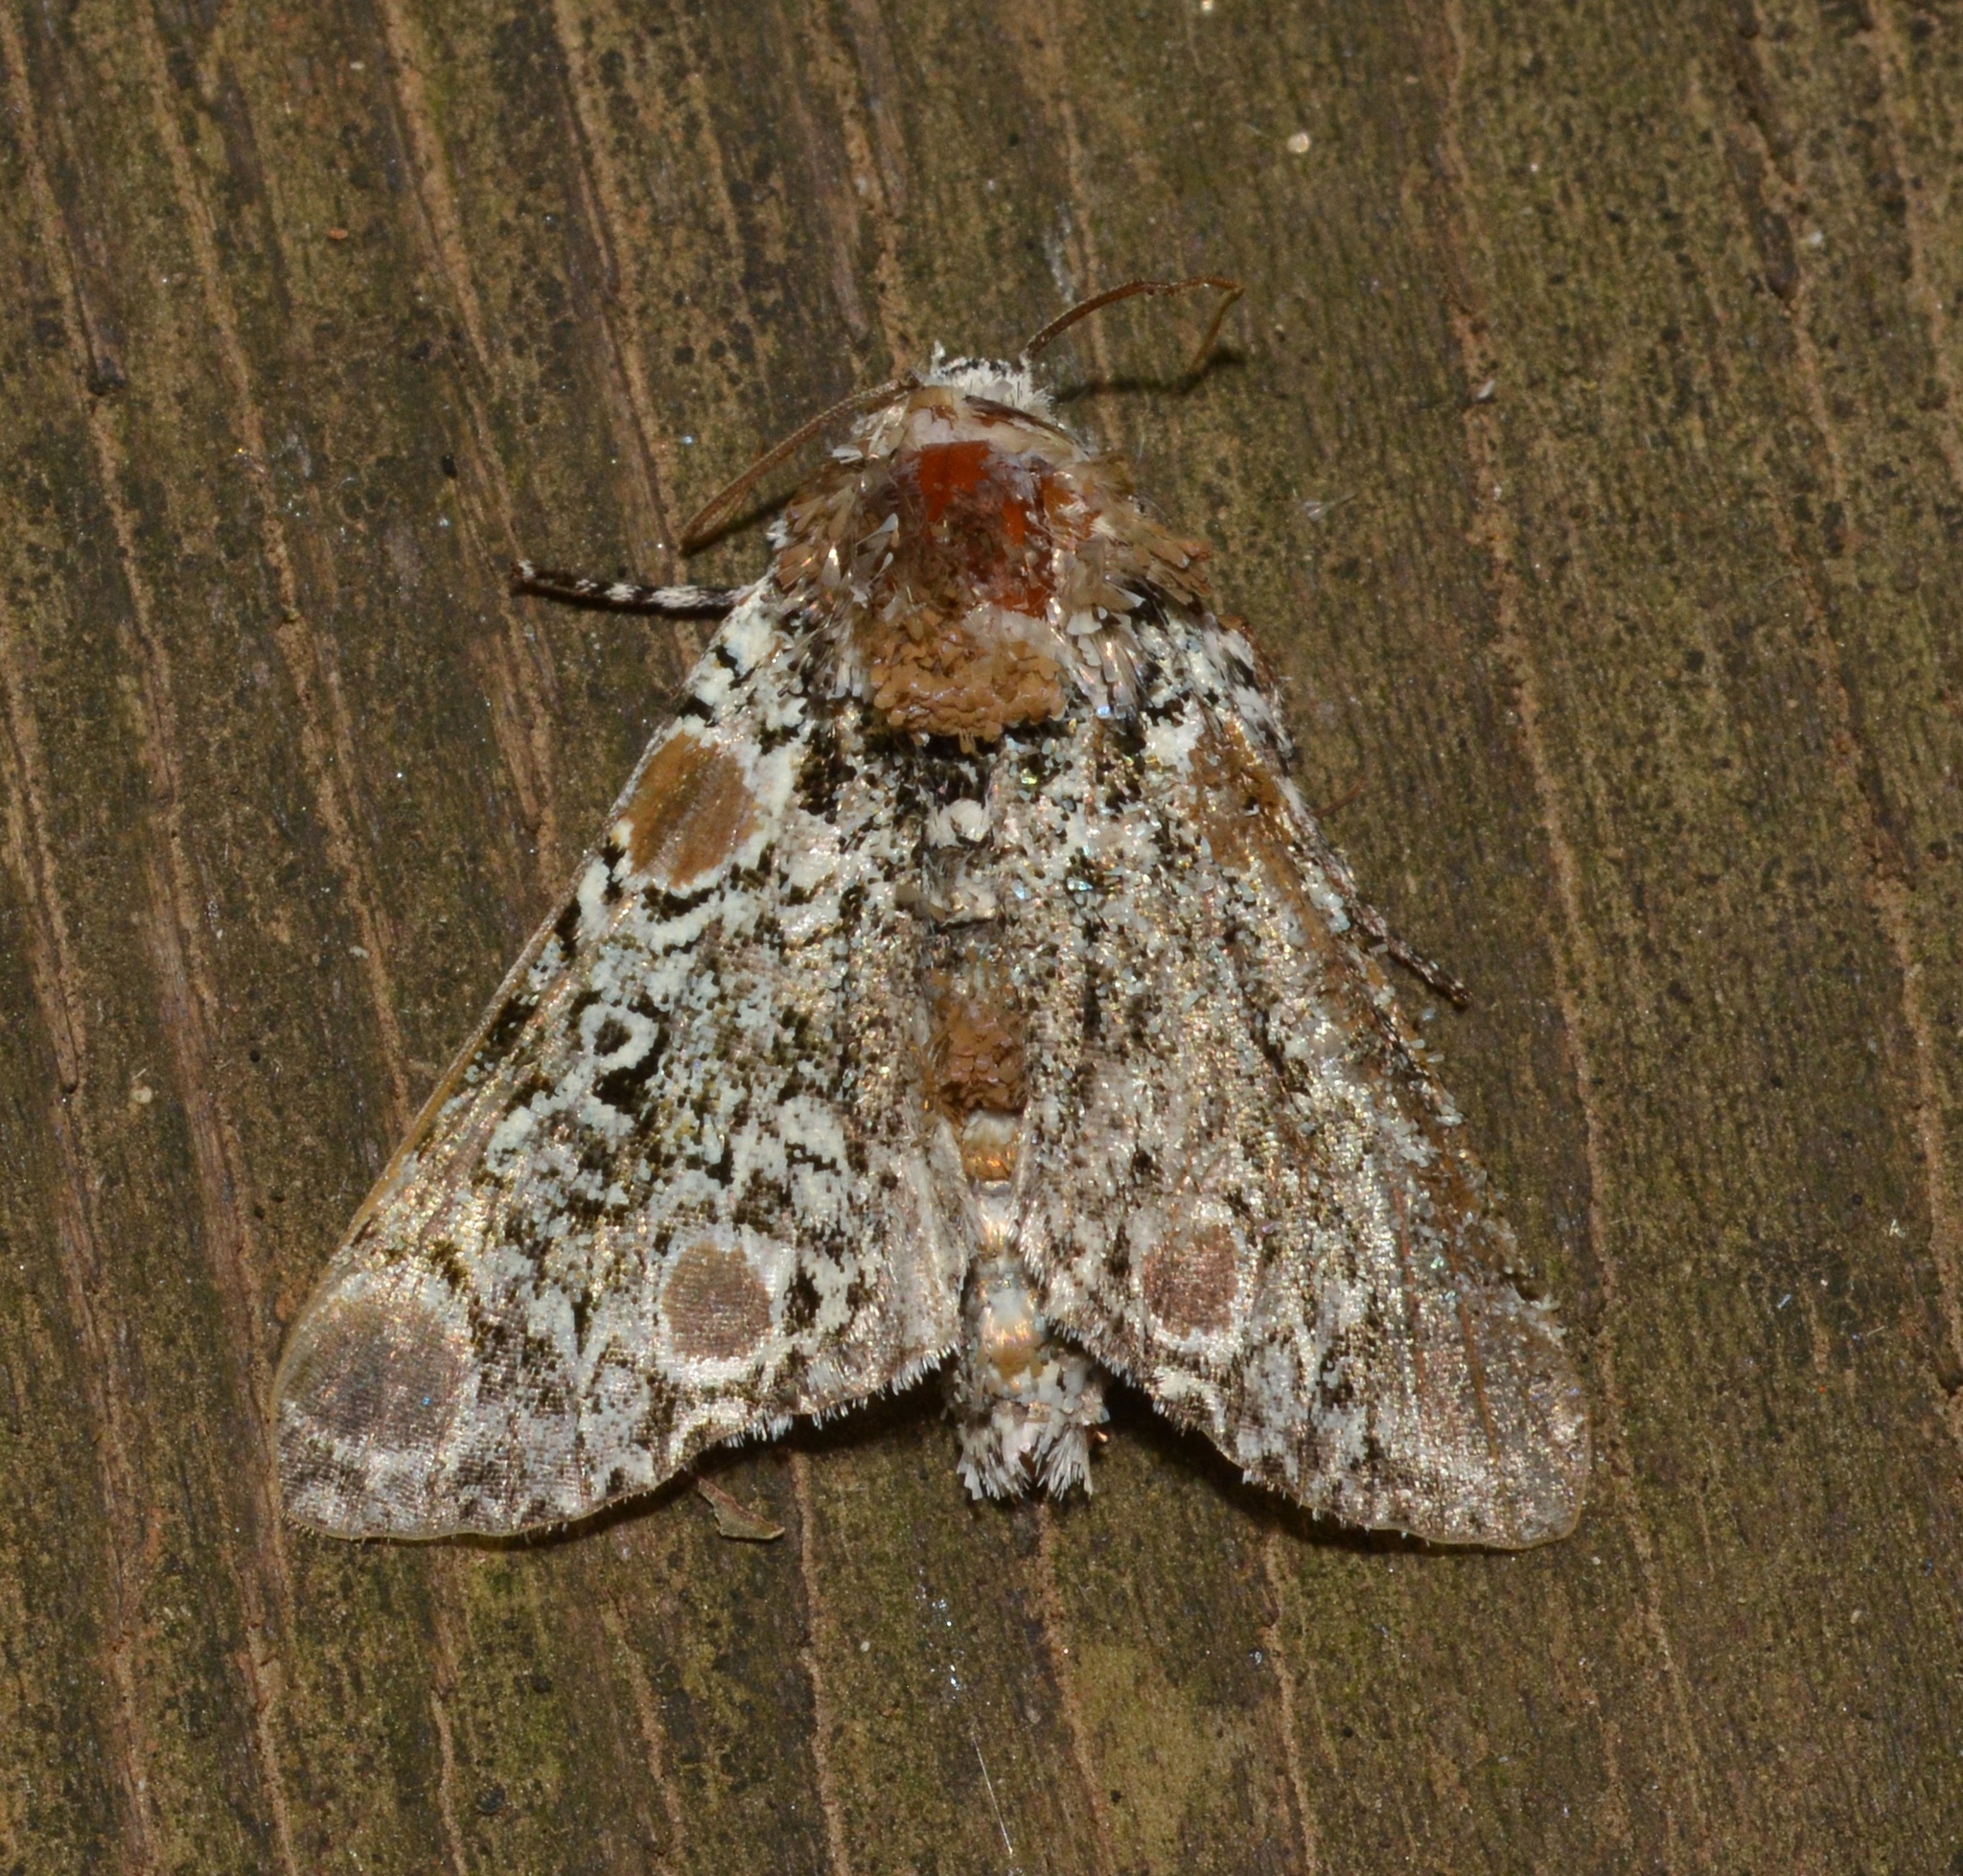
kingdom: Animalia
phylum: Arthropoda
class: Insecta
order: Lepidoptera
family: Noctuidae
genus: Harrisimemna
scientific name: Harrisimemna trisignata
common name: Harris threespot
